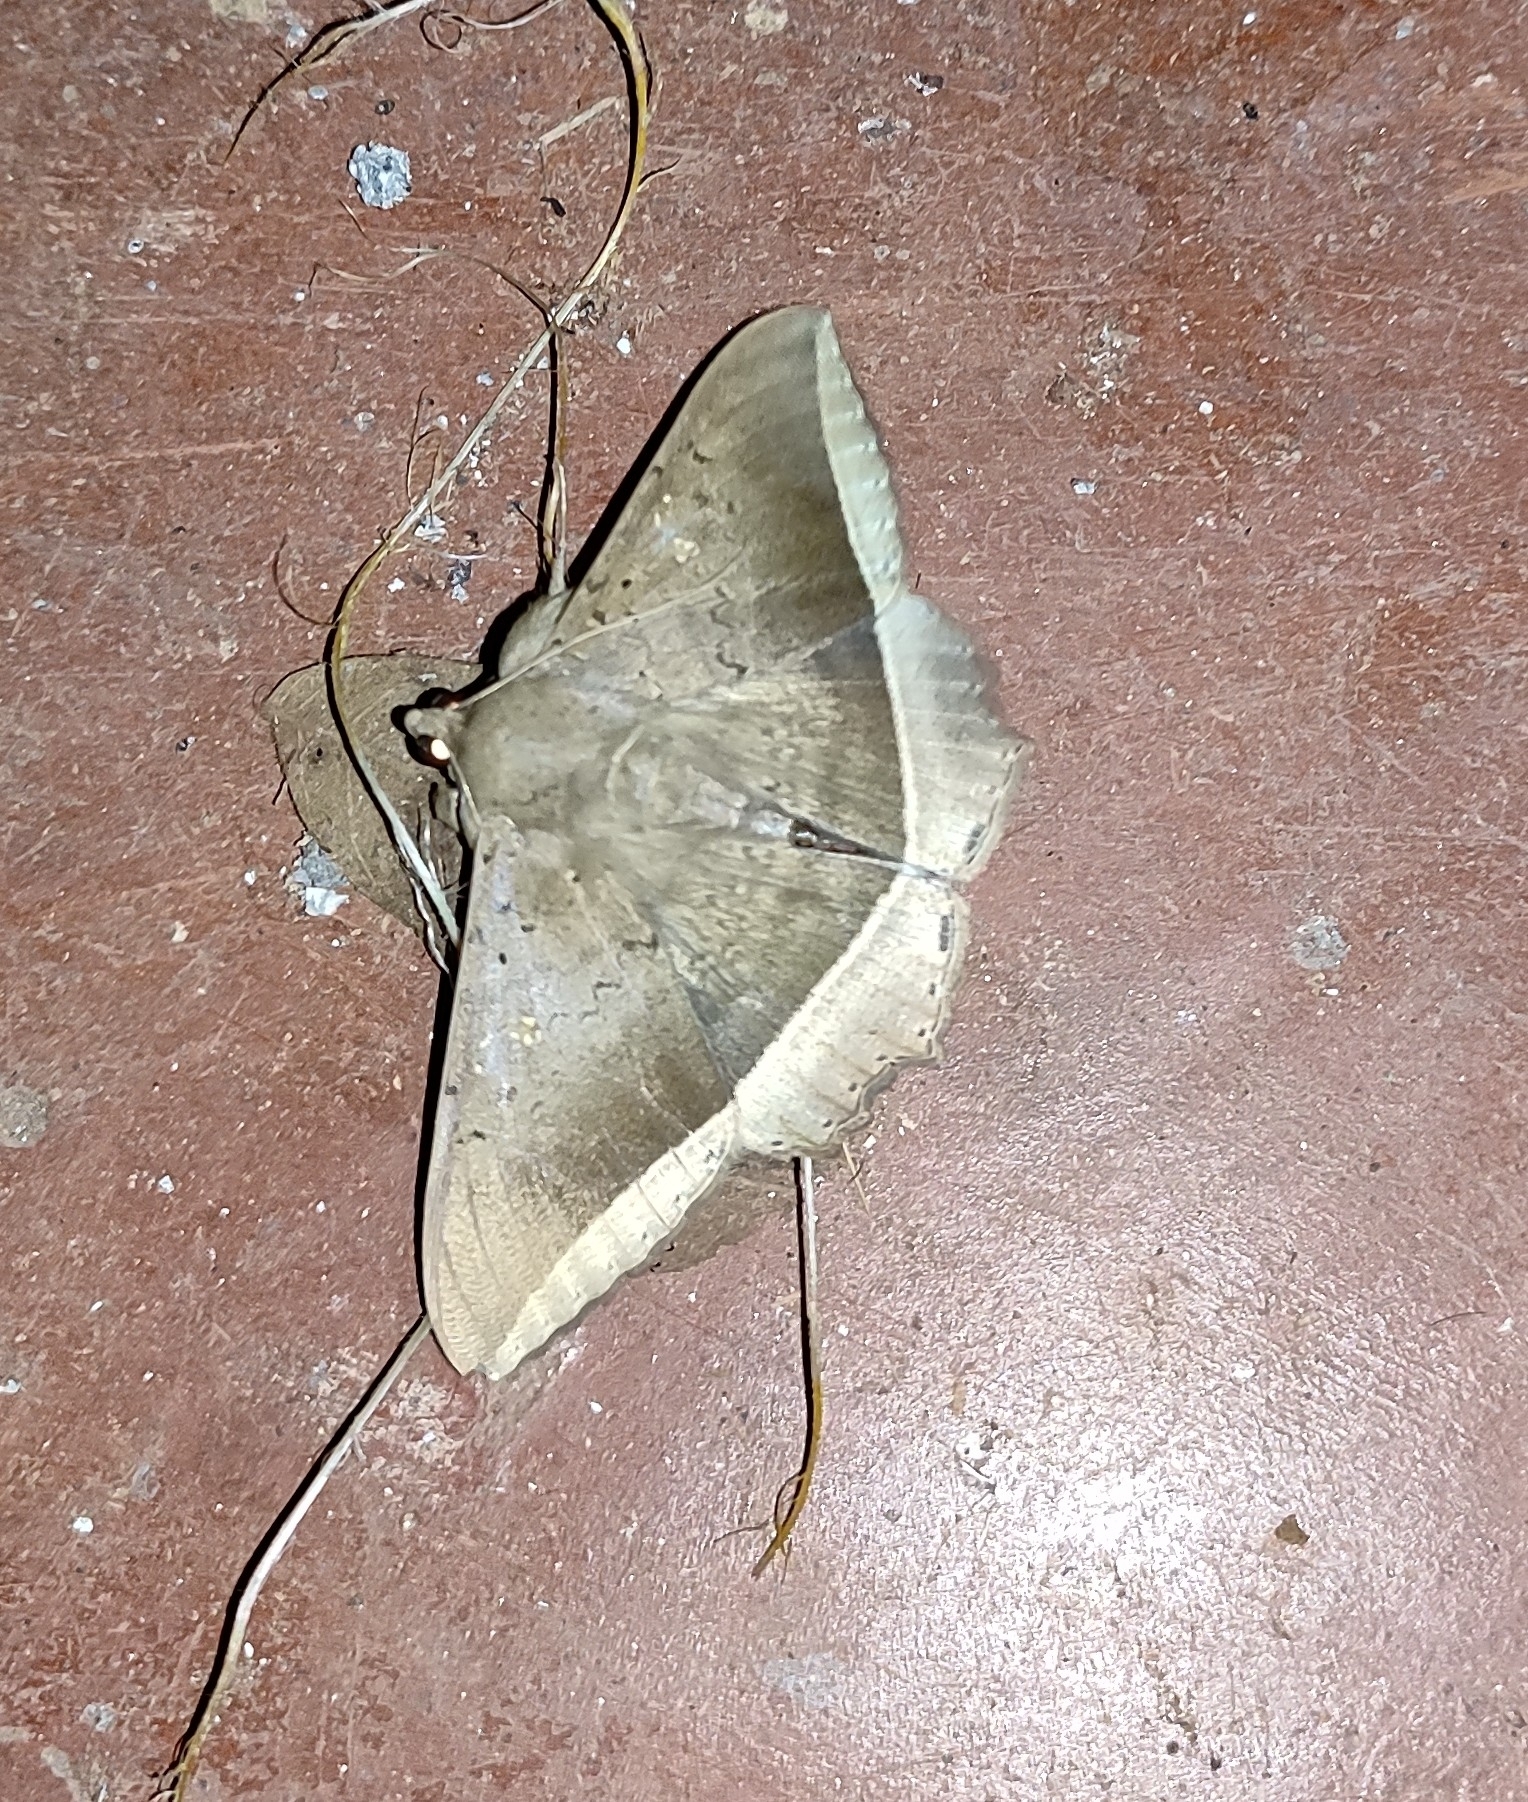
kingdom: Animalia
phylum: Arthropoda
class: Insecta
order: Lepidoptera
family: Erebidae
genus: Hulodes
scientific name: Hulodes caranea
